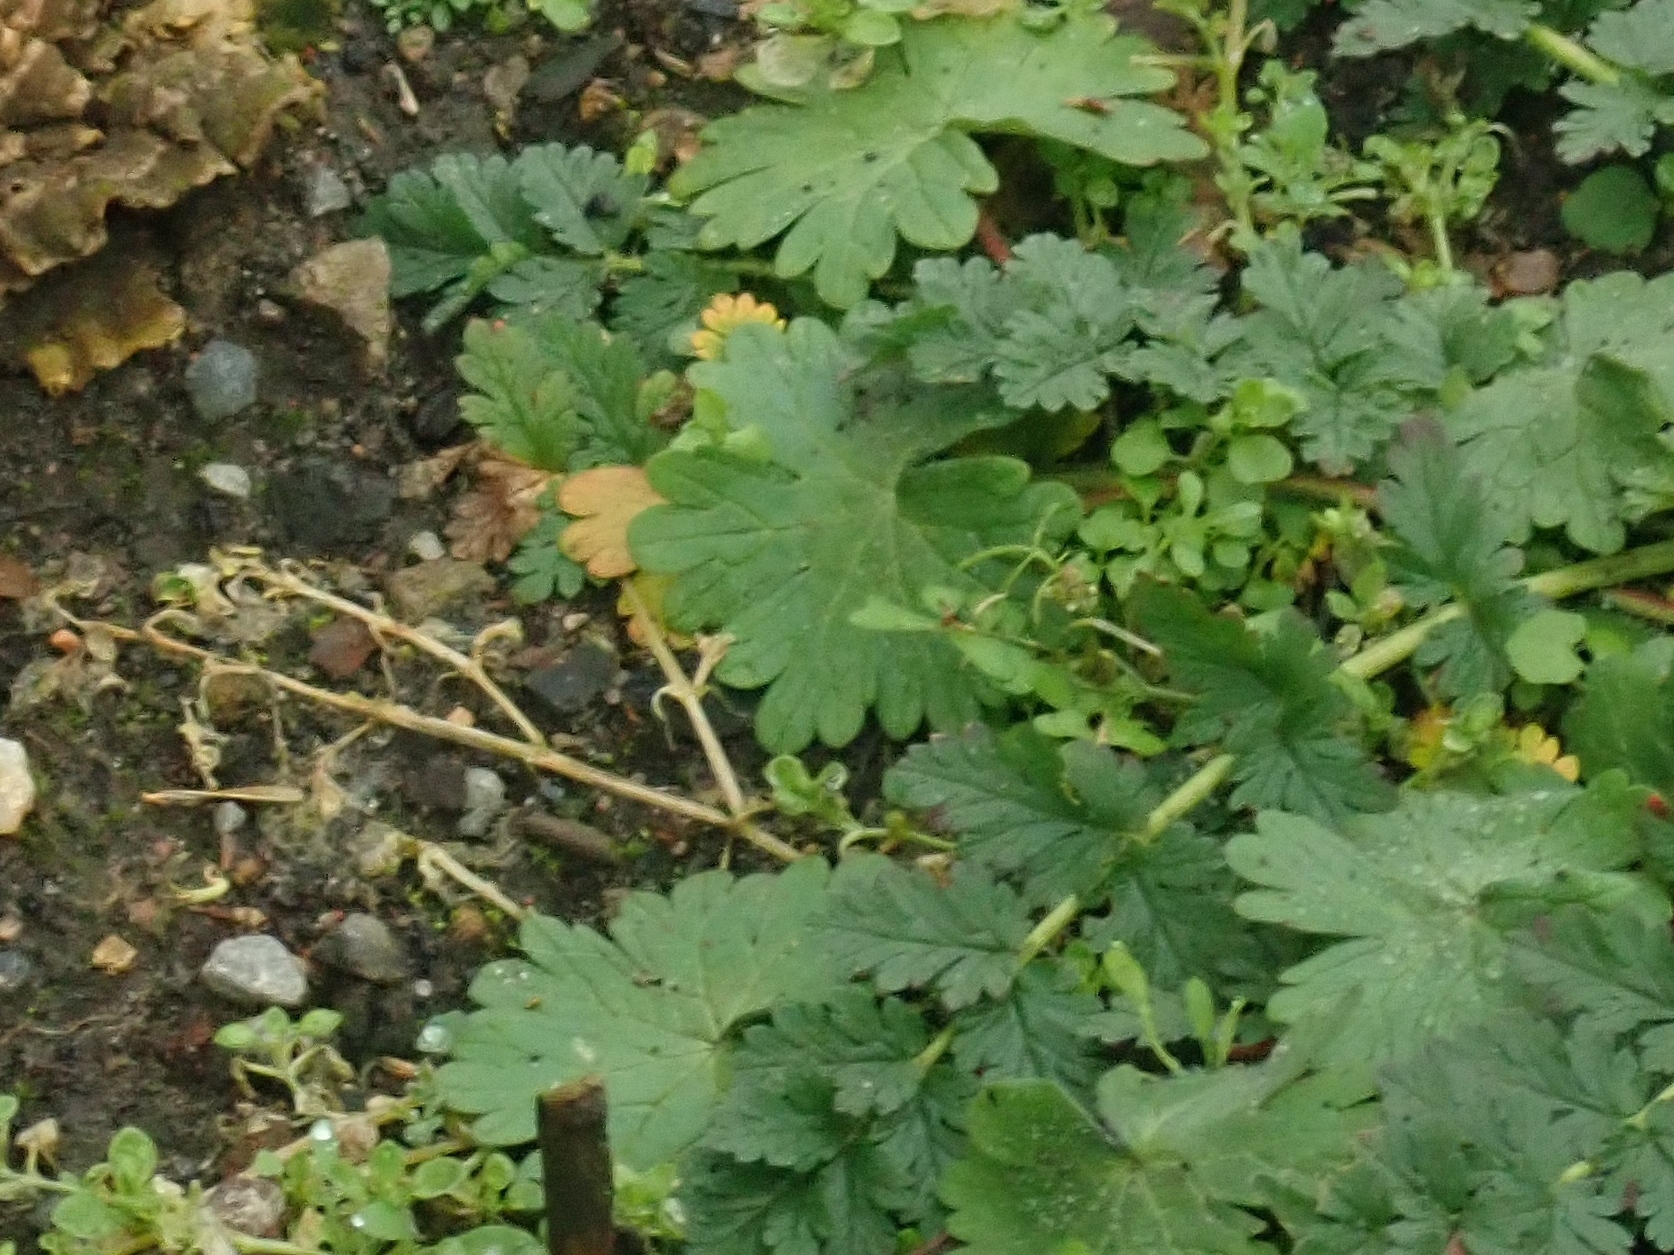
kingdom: Plantae
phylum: Tracheophyta
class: Magnoliopsida
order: Geraniales
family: Geraniaceae
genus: Geranium
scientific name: Geranium molle
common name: Dove's-foot crane's-bill
